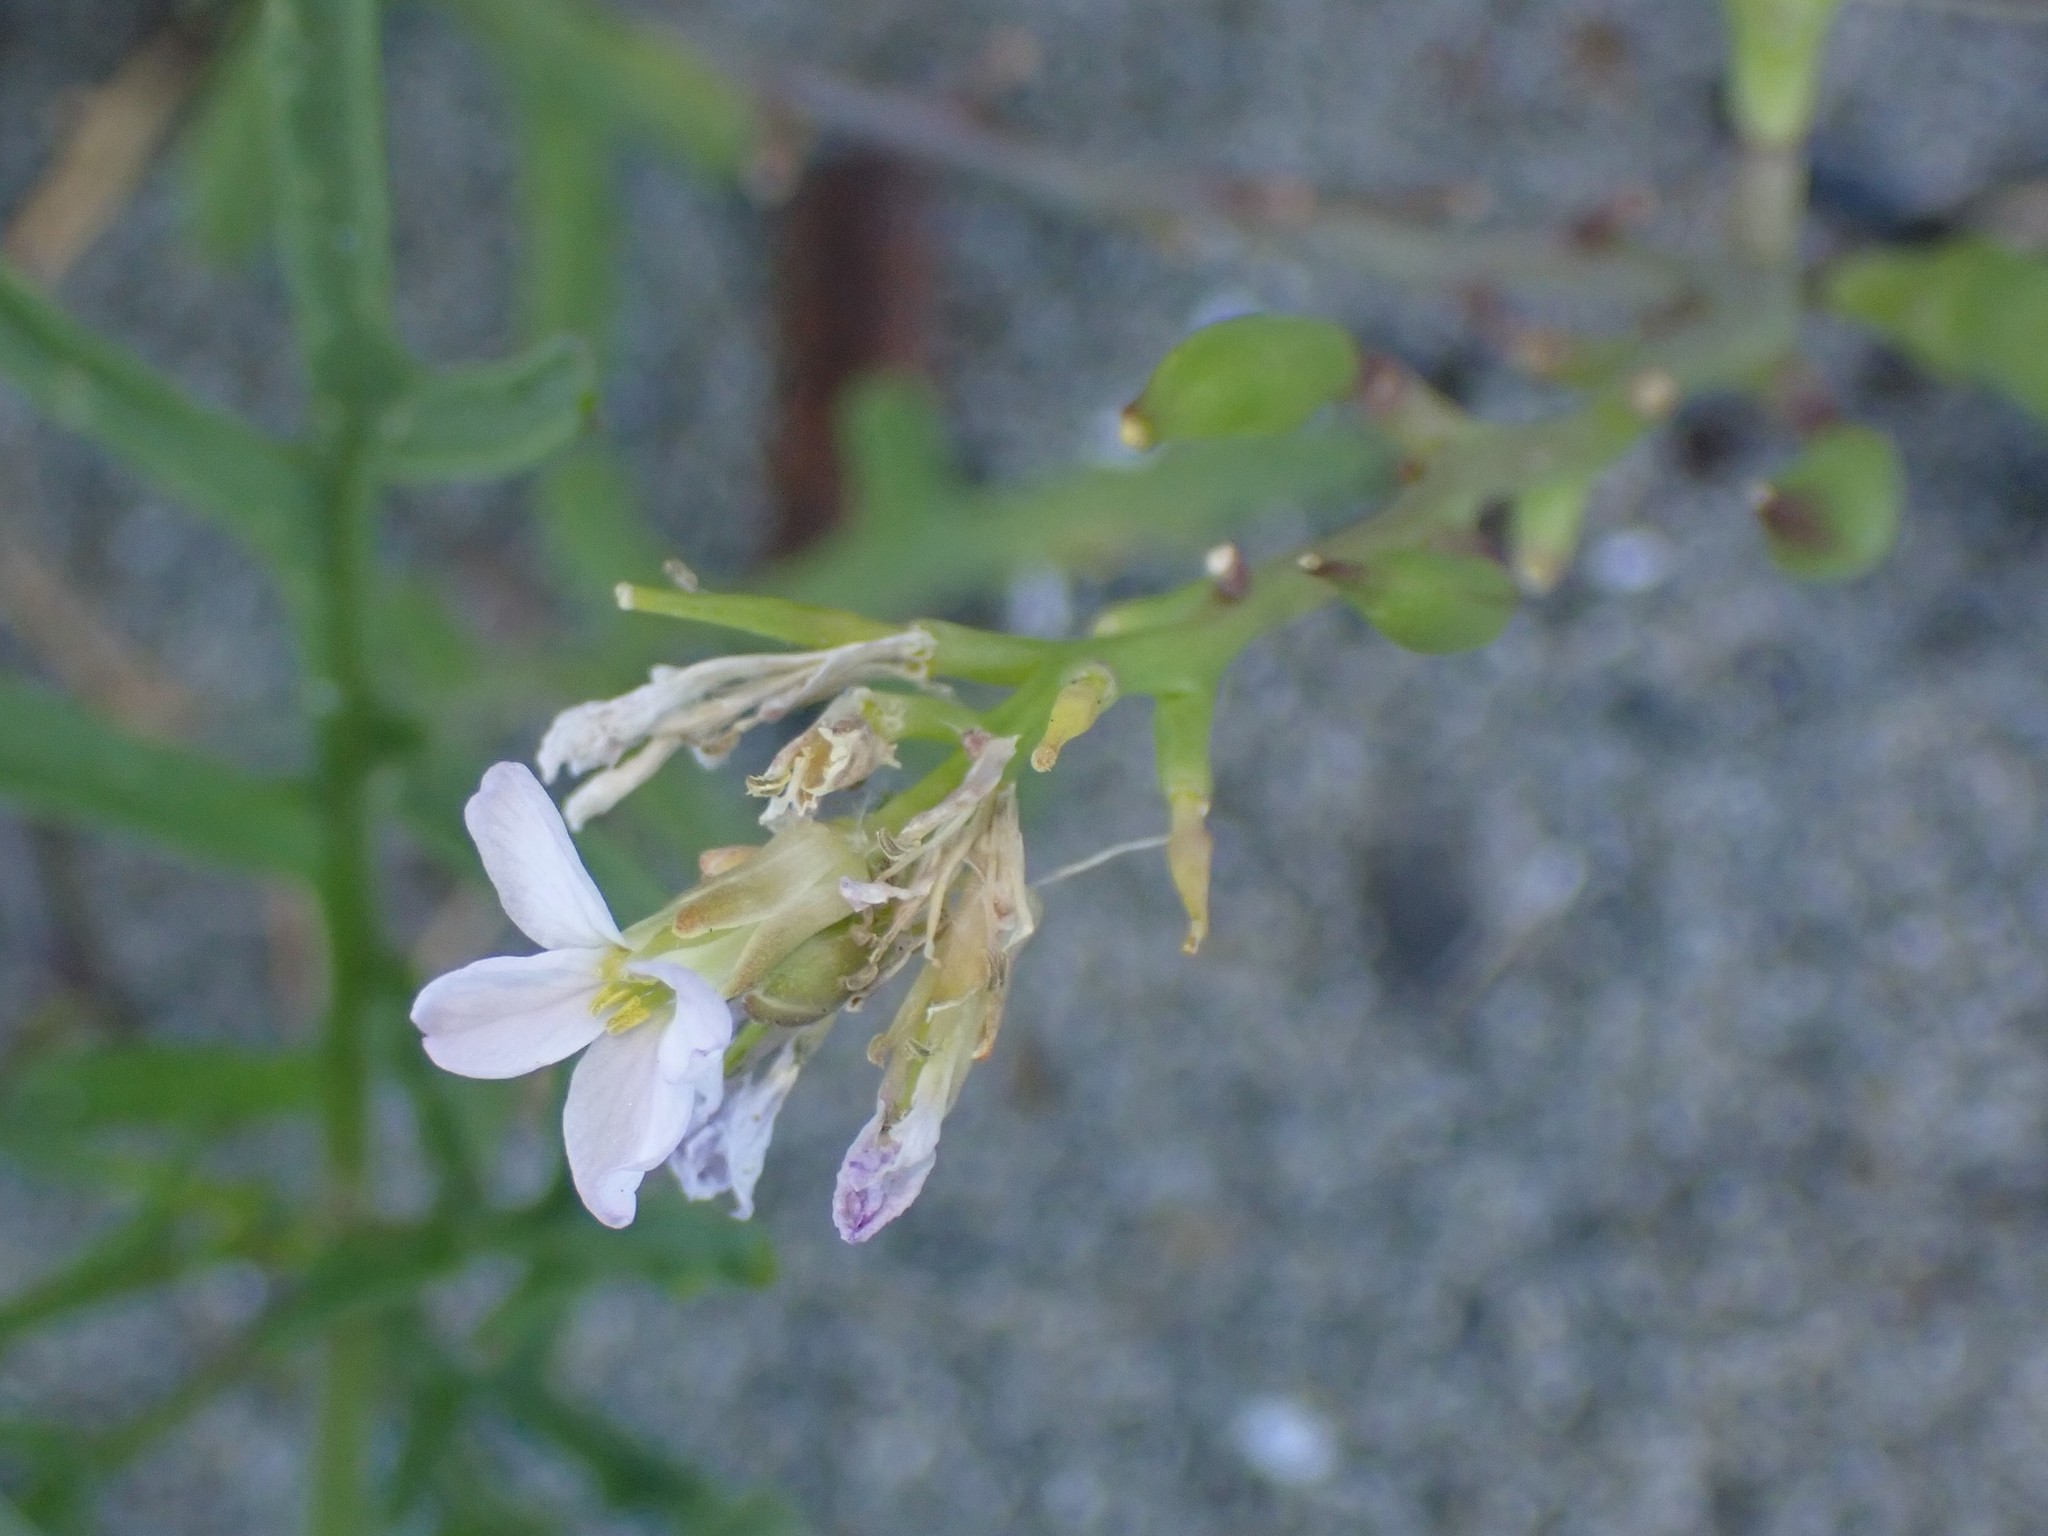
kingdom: Plantae
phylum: Tracheophyta
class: Magnoliopsida
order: Brassicales
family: Brassicaceae
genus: Cakile
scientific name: Cakile maritima
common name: Sea rocket
